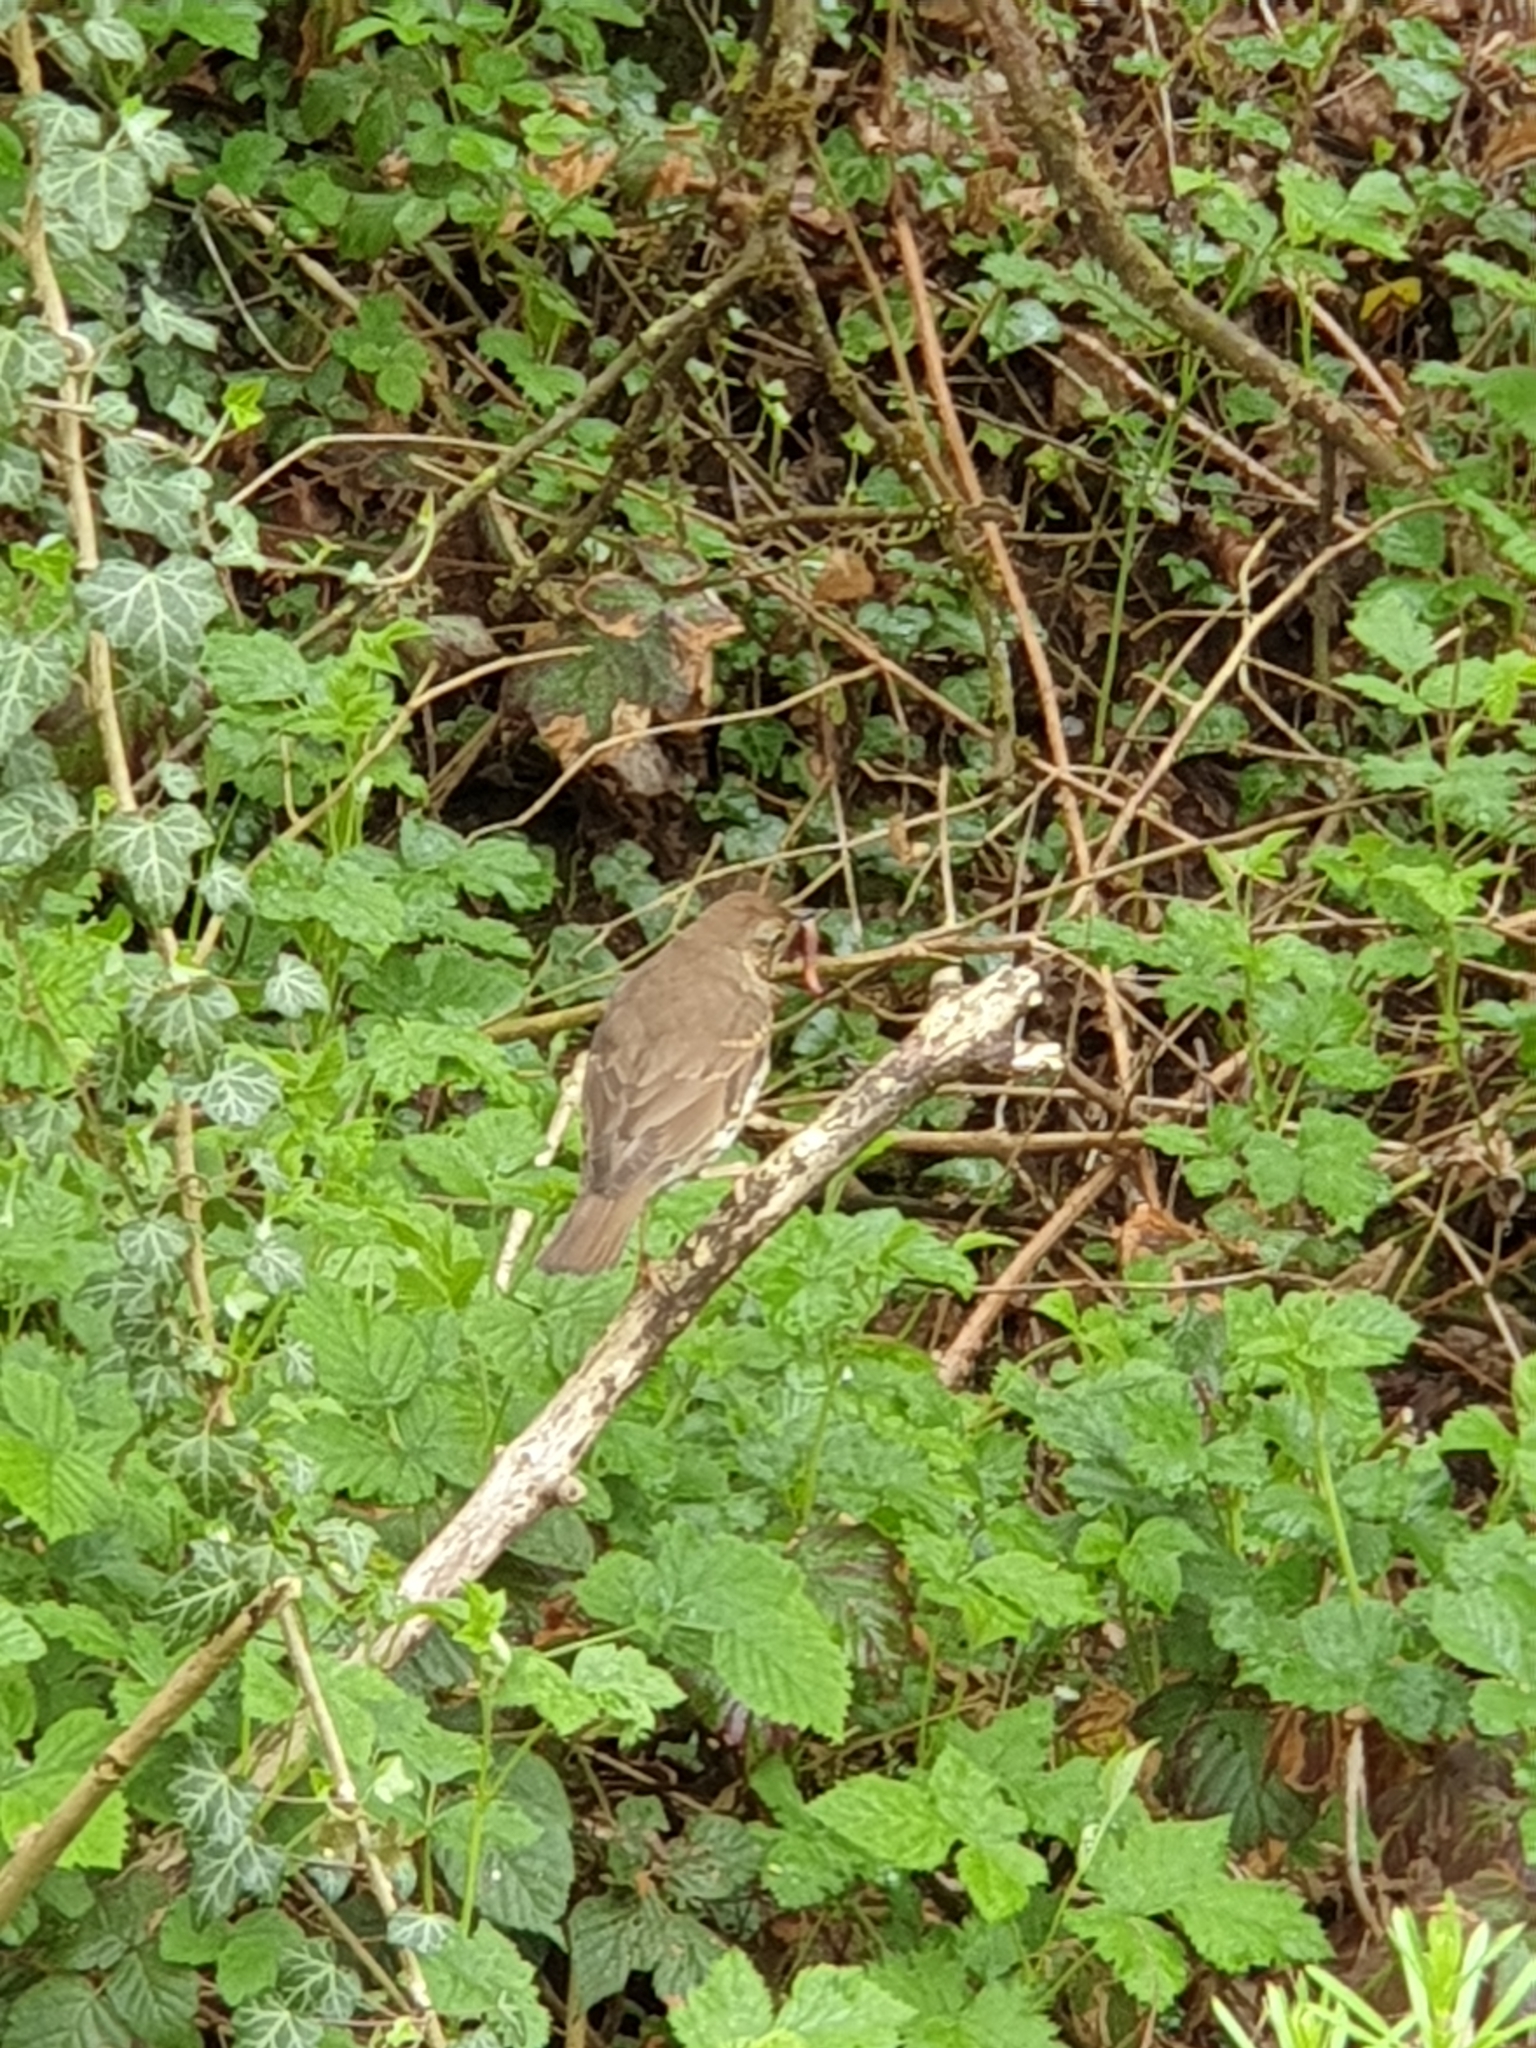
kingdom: Animalia
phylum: Chordata
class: Aves
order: Passeriformes
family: Turdidae
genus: Turdus
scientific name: Turdus philomelos
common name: Song thrush
